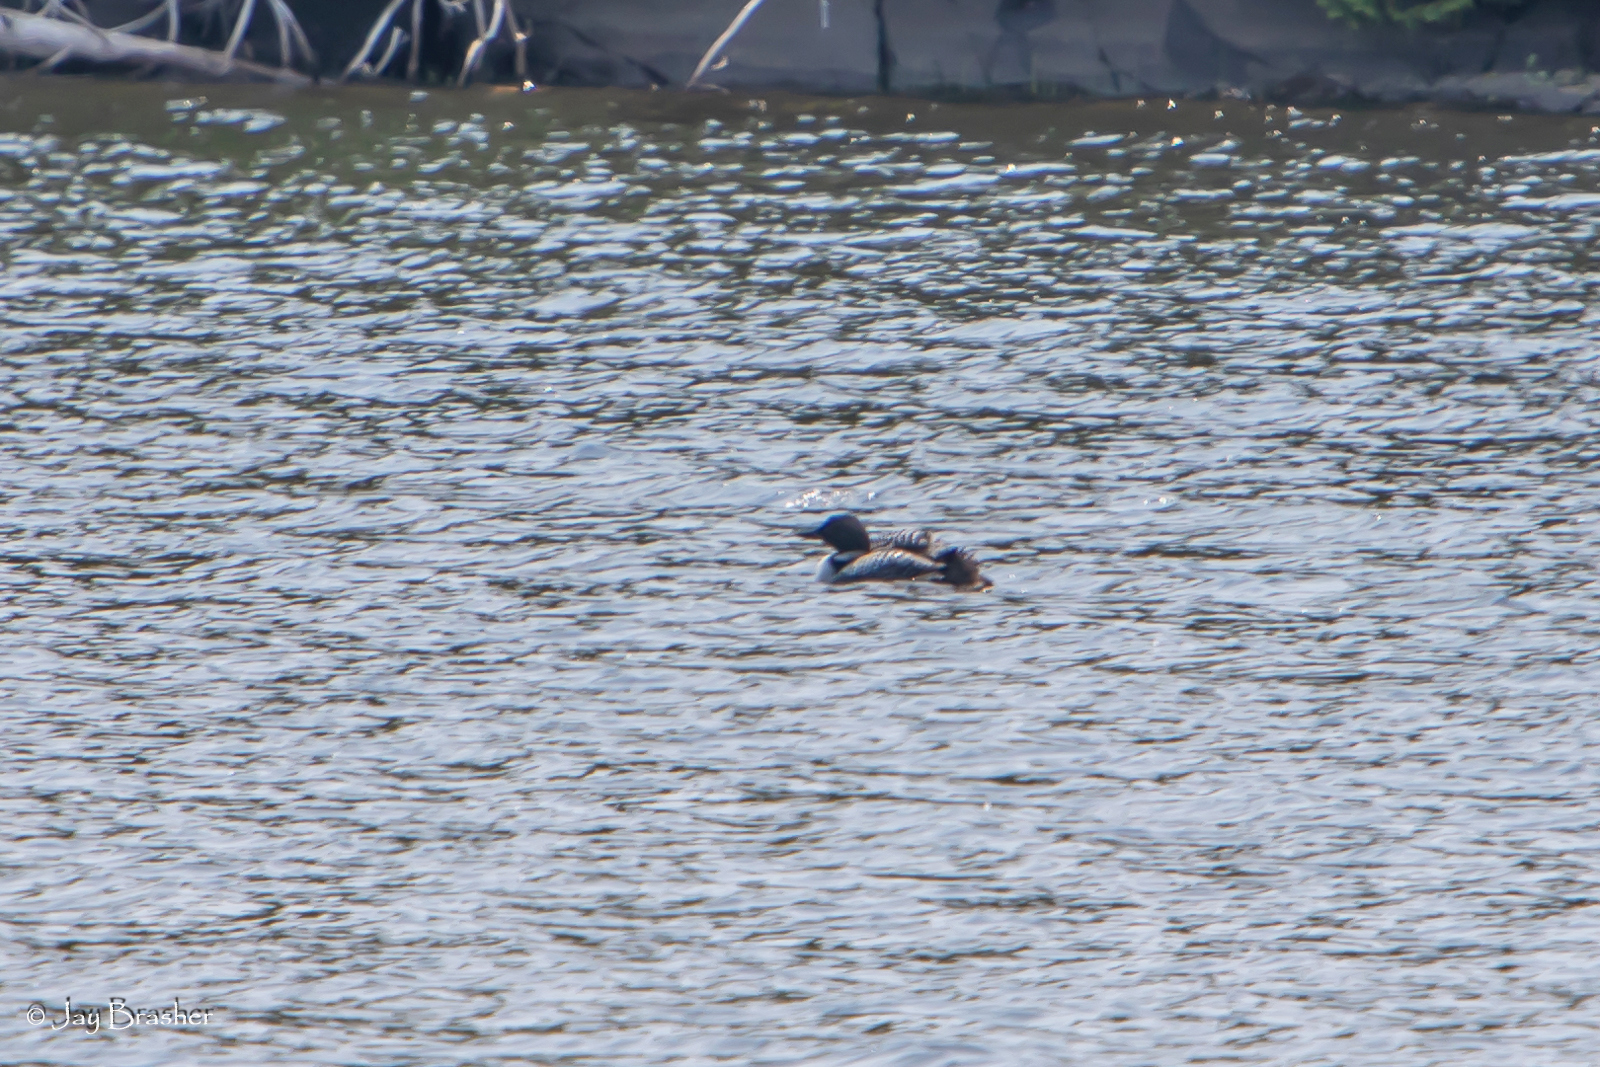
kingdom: Animalia
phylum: Chordata
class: Aves
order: Gaviiformes
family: Gaviidae
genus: Gavia
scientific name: Gavia immer
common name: Common loon
